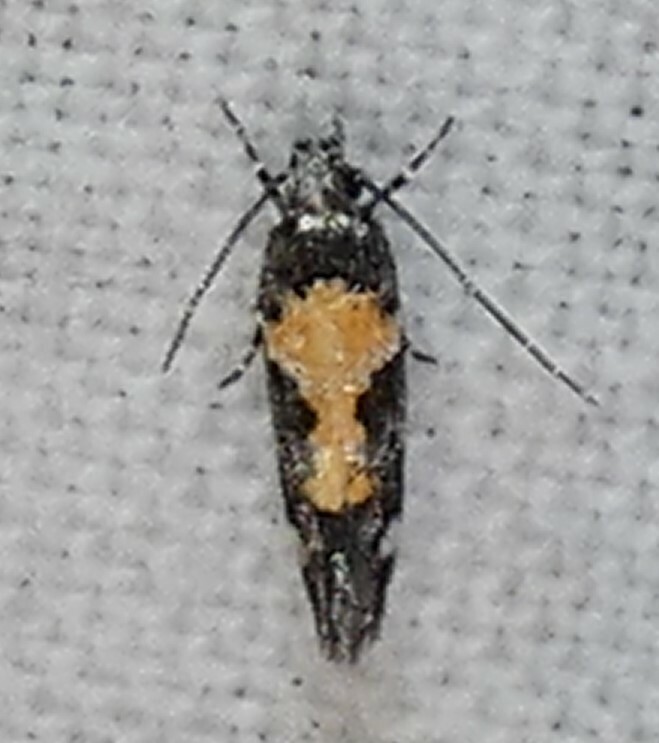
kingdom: Animalia
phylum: Arthropoda
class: Insecta
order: Lepidoptera
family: Gelechiidae
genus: Stegasta
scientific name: Stegasta bosqueella
